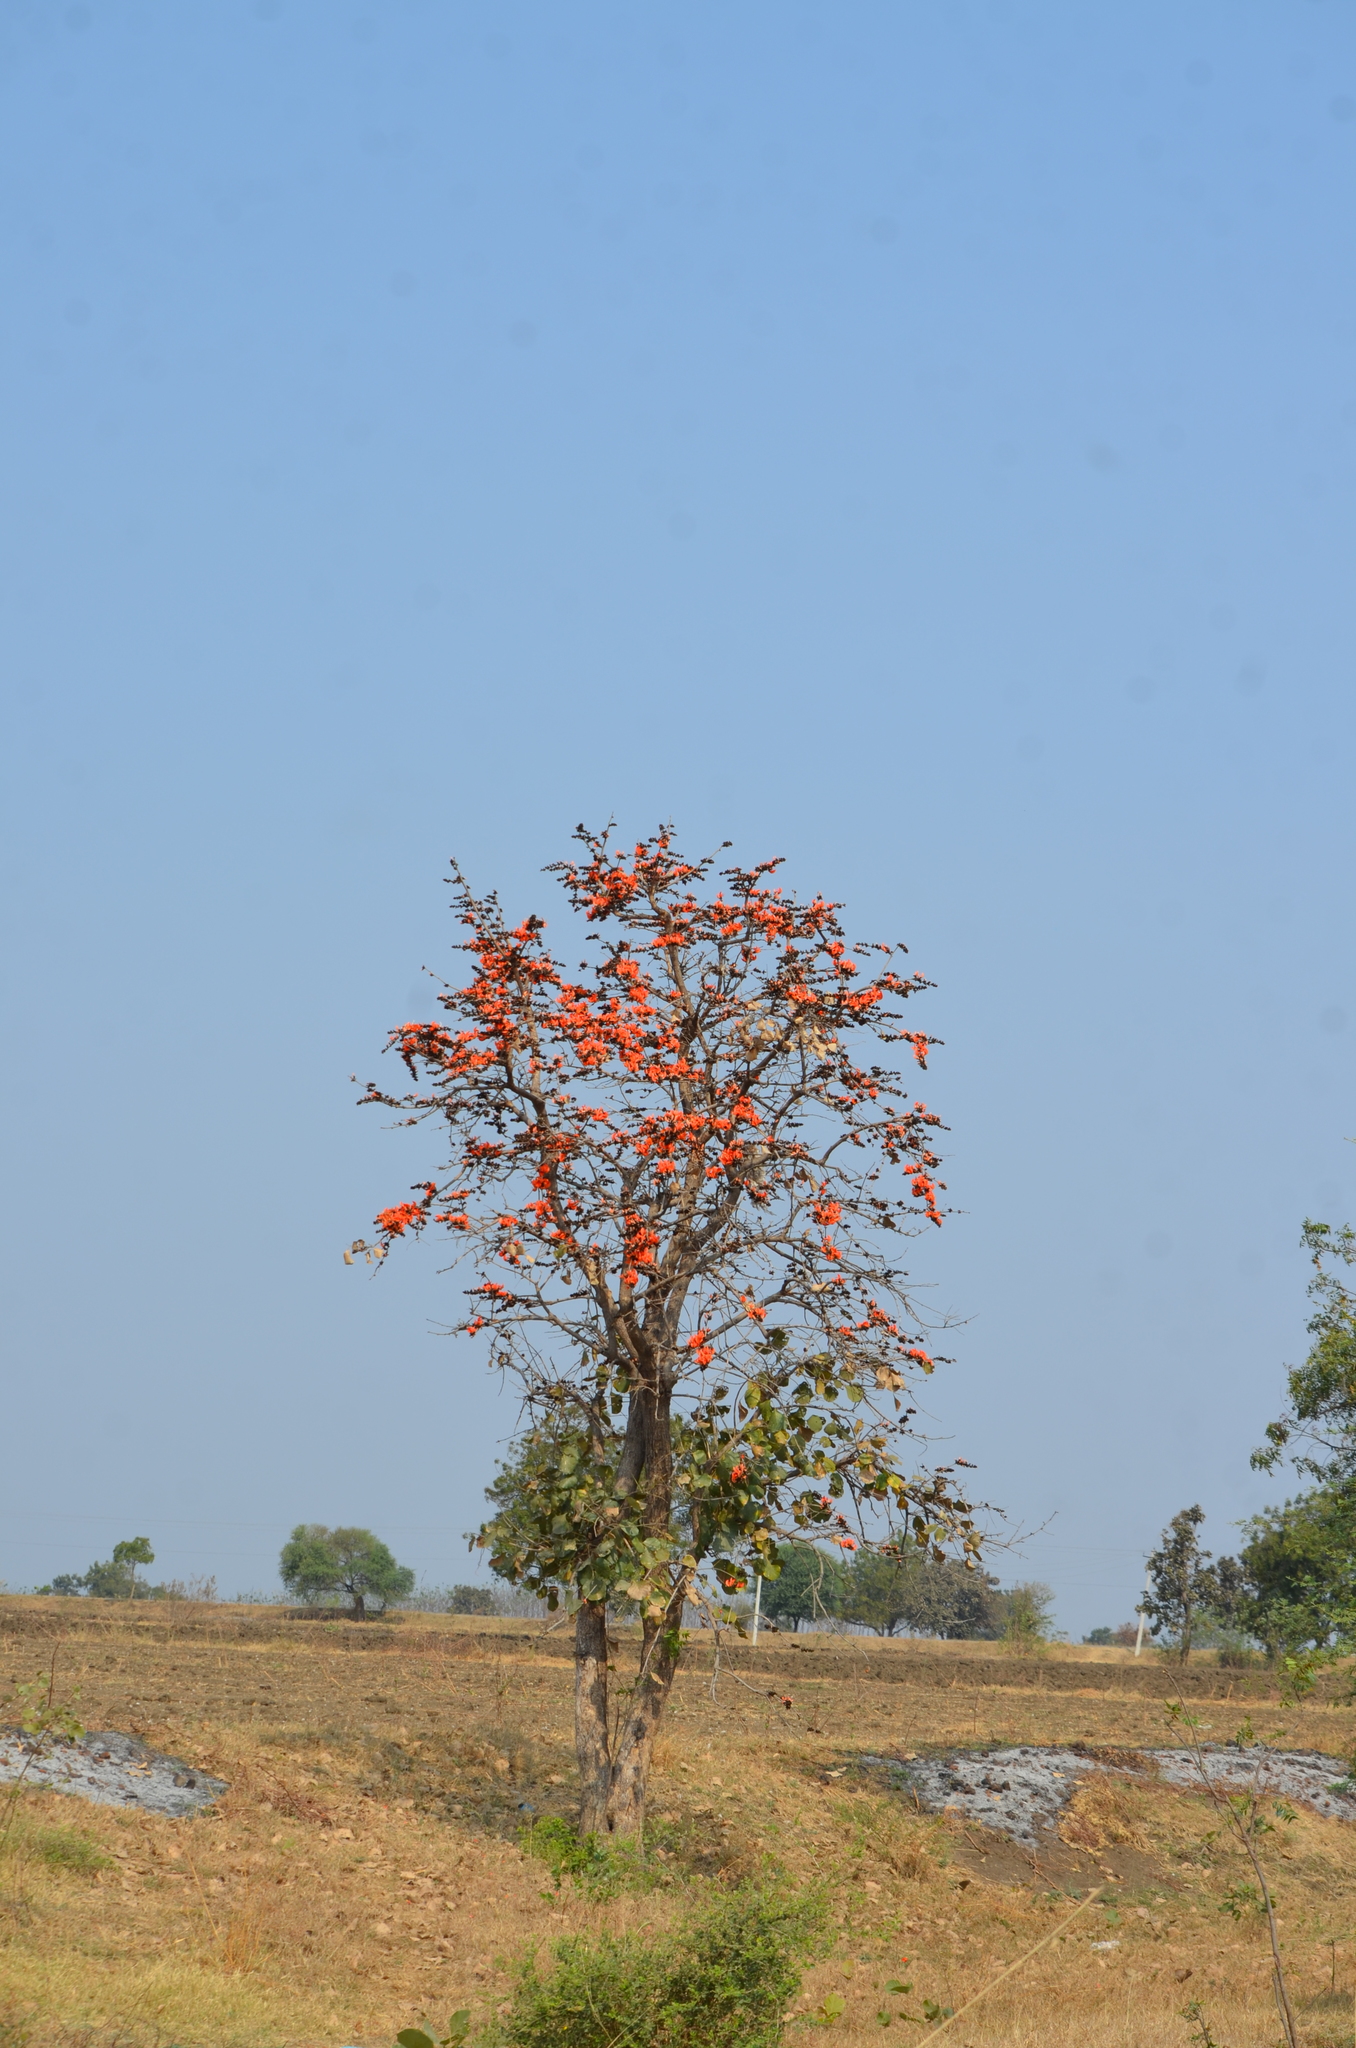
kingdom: Plantae
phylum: Tracheophyta
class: Magnoliopsida
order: Fabales
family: Fabaceae
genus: Butea
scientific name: Butea monosperma
